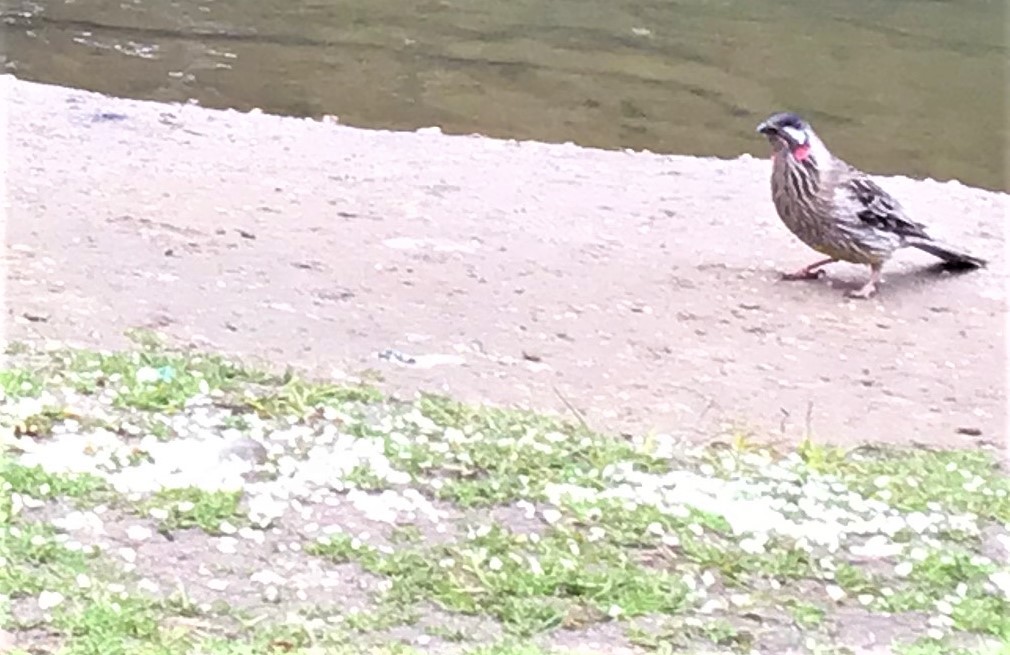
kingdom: Animalia
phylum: Chordata
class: Aves
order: Passeriformes
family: Meliphagidae
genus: Anthochaera
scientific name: Anthochaera carunculata
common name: Red wattlebird
